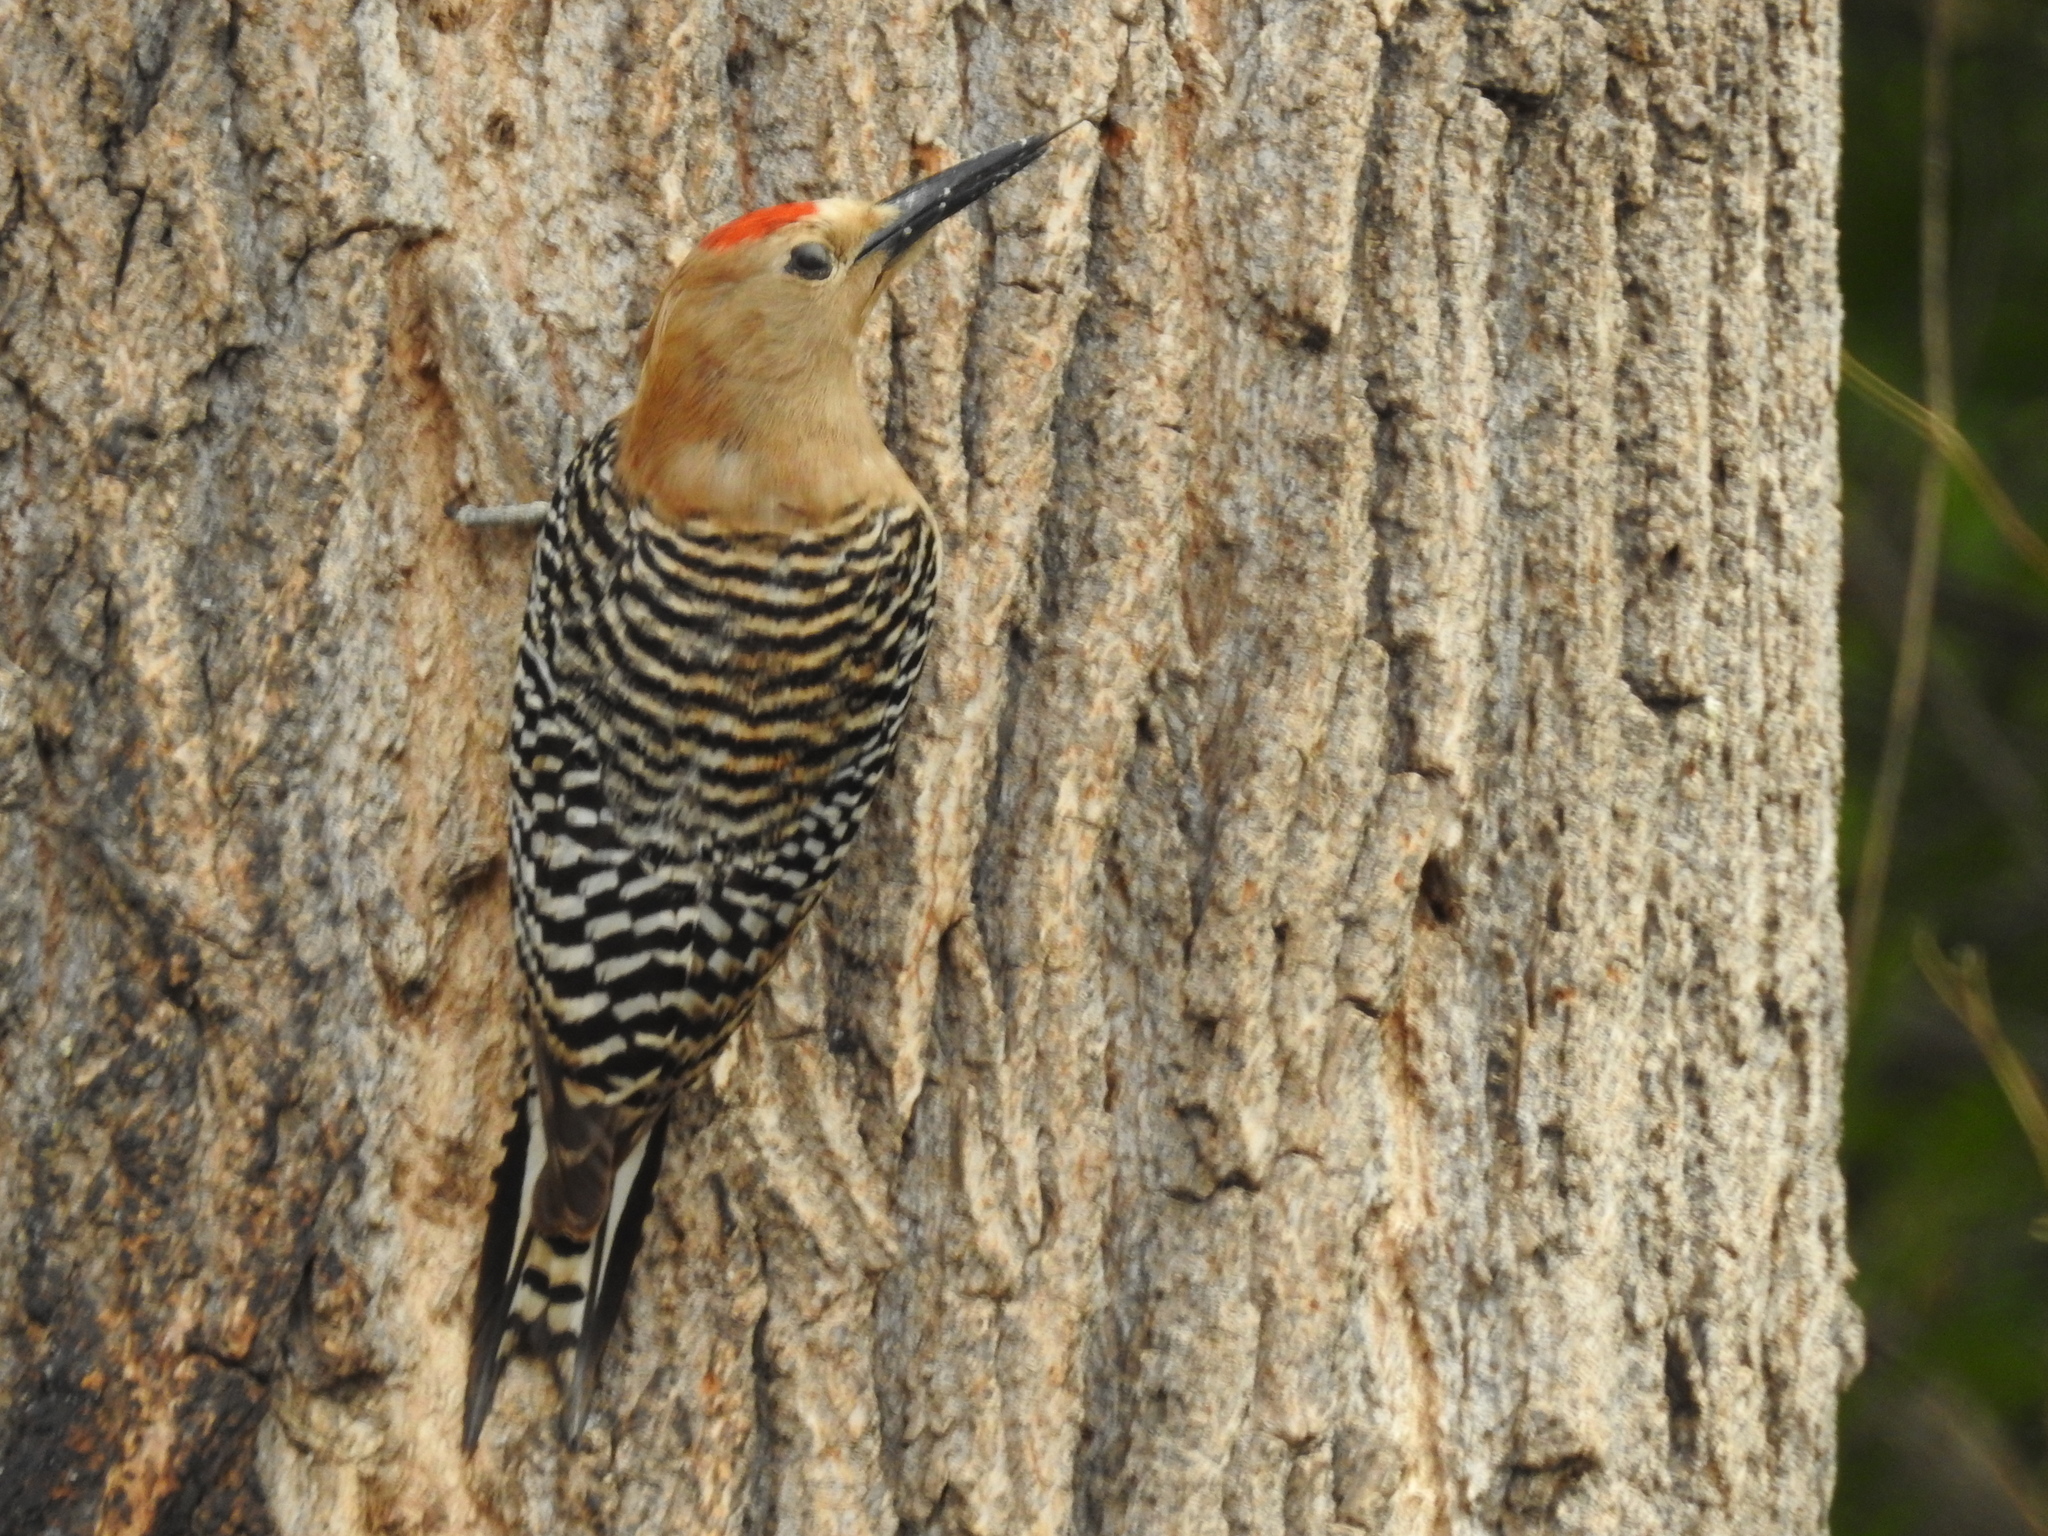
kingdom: Animalia
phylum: Chordata
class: Aves
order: Piciformes
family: Picidae
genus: Melanerpes
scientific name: Melanerpes uropygialis
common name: Gila woodpecker
